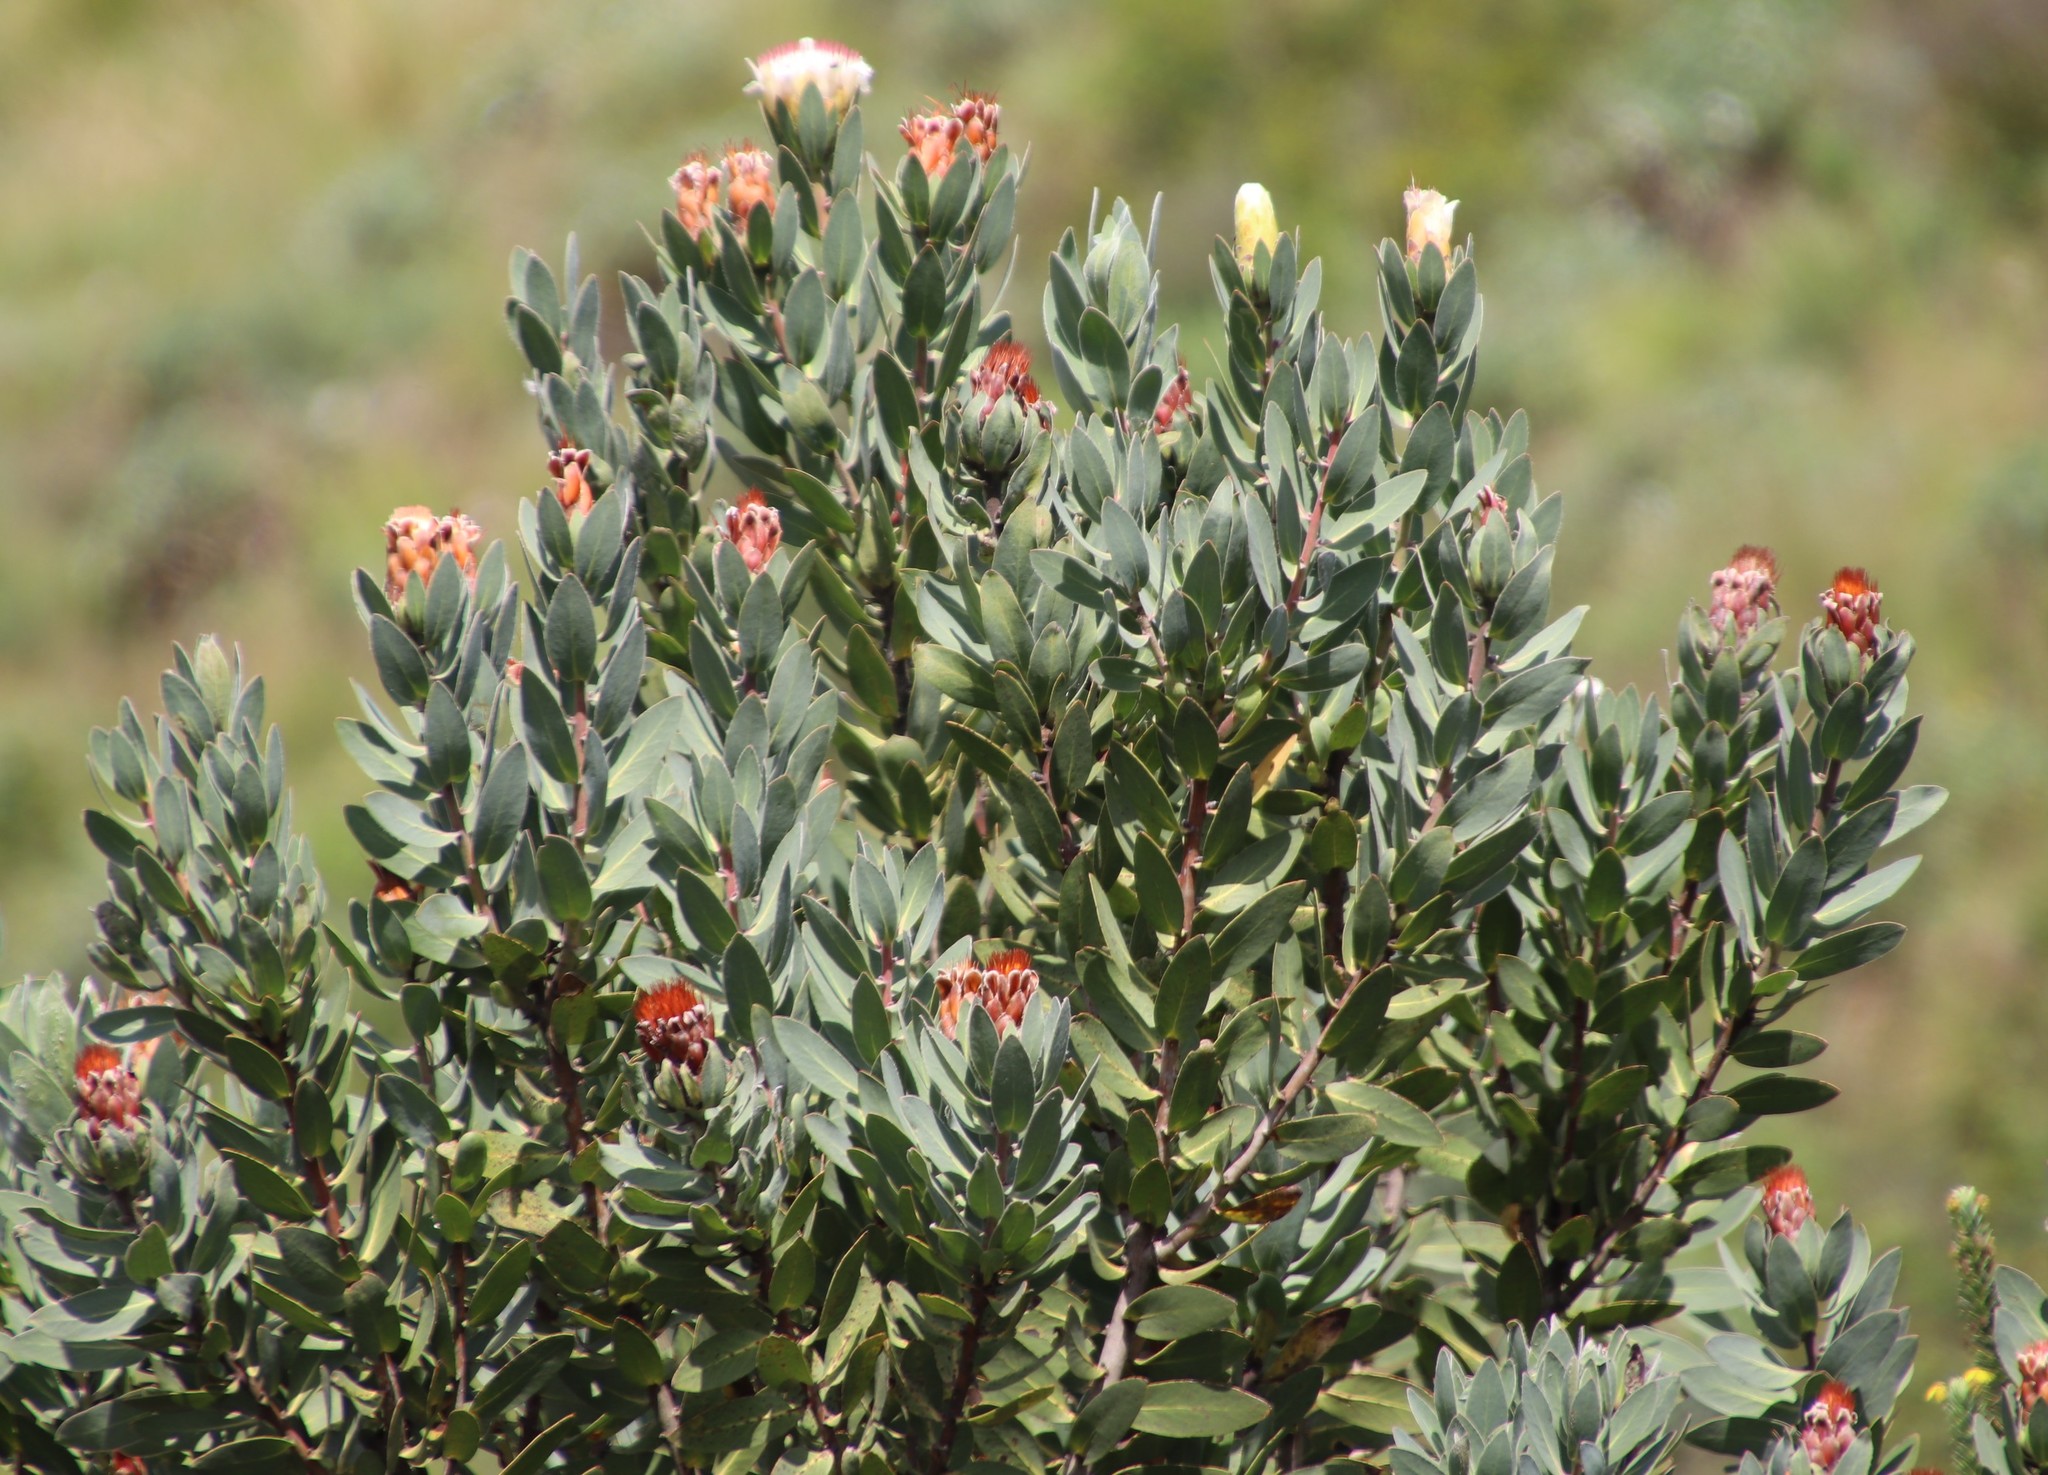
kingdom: Plantae
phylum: Tracheophyta
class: Magnoliopsida
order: Proteales
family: Proteaceae
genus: Protea
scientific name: Protea subvestita
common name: Lip-flower sugarbush
